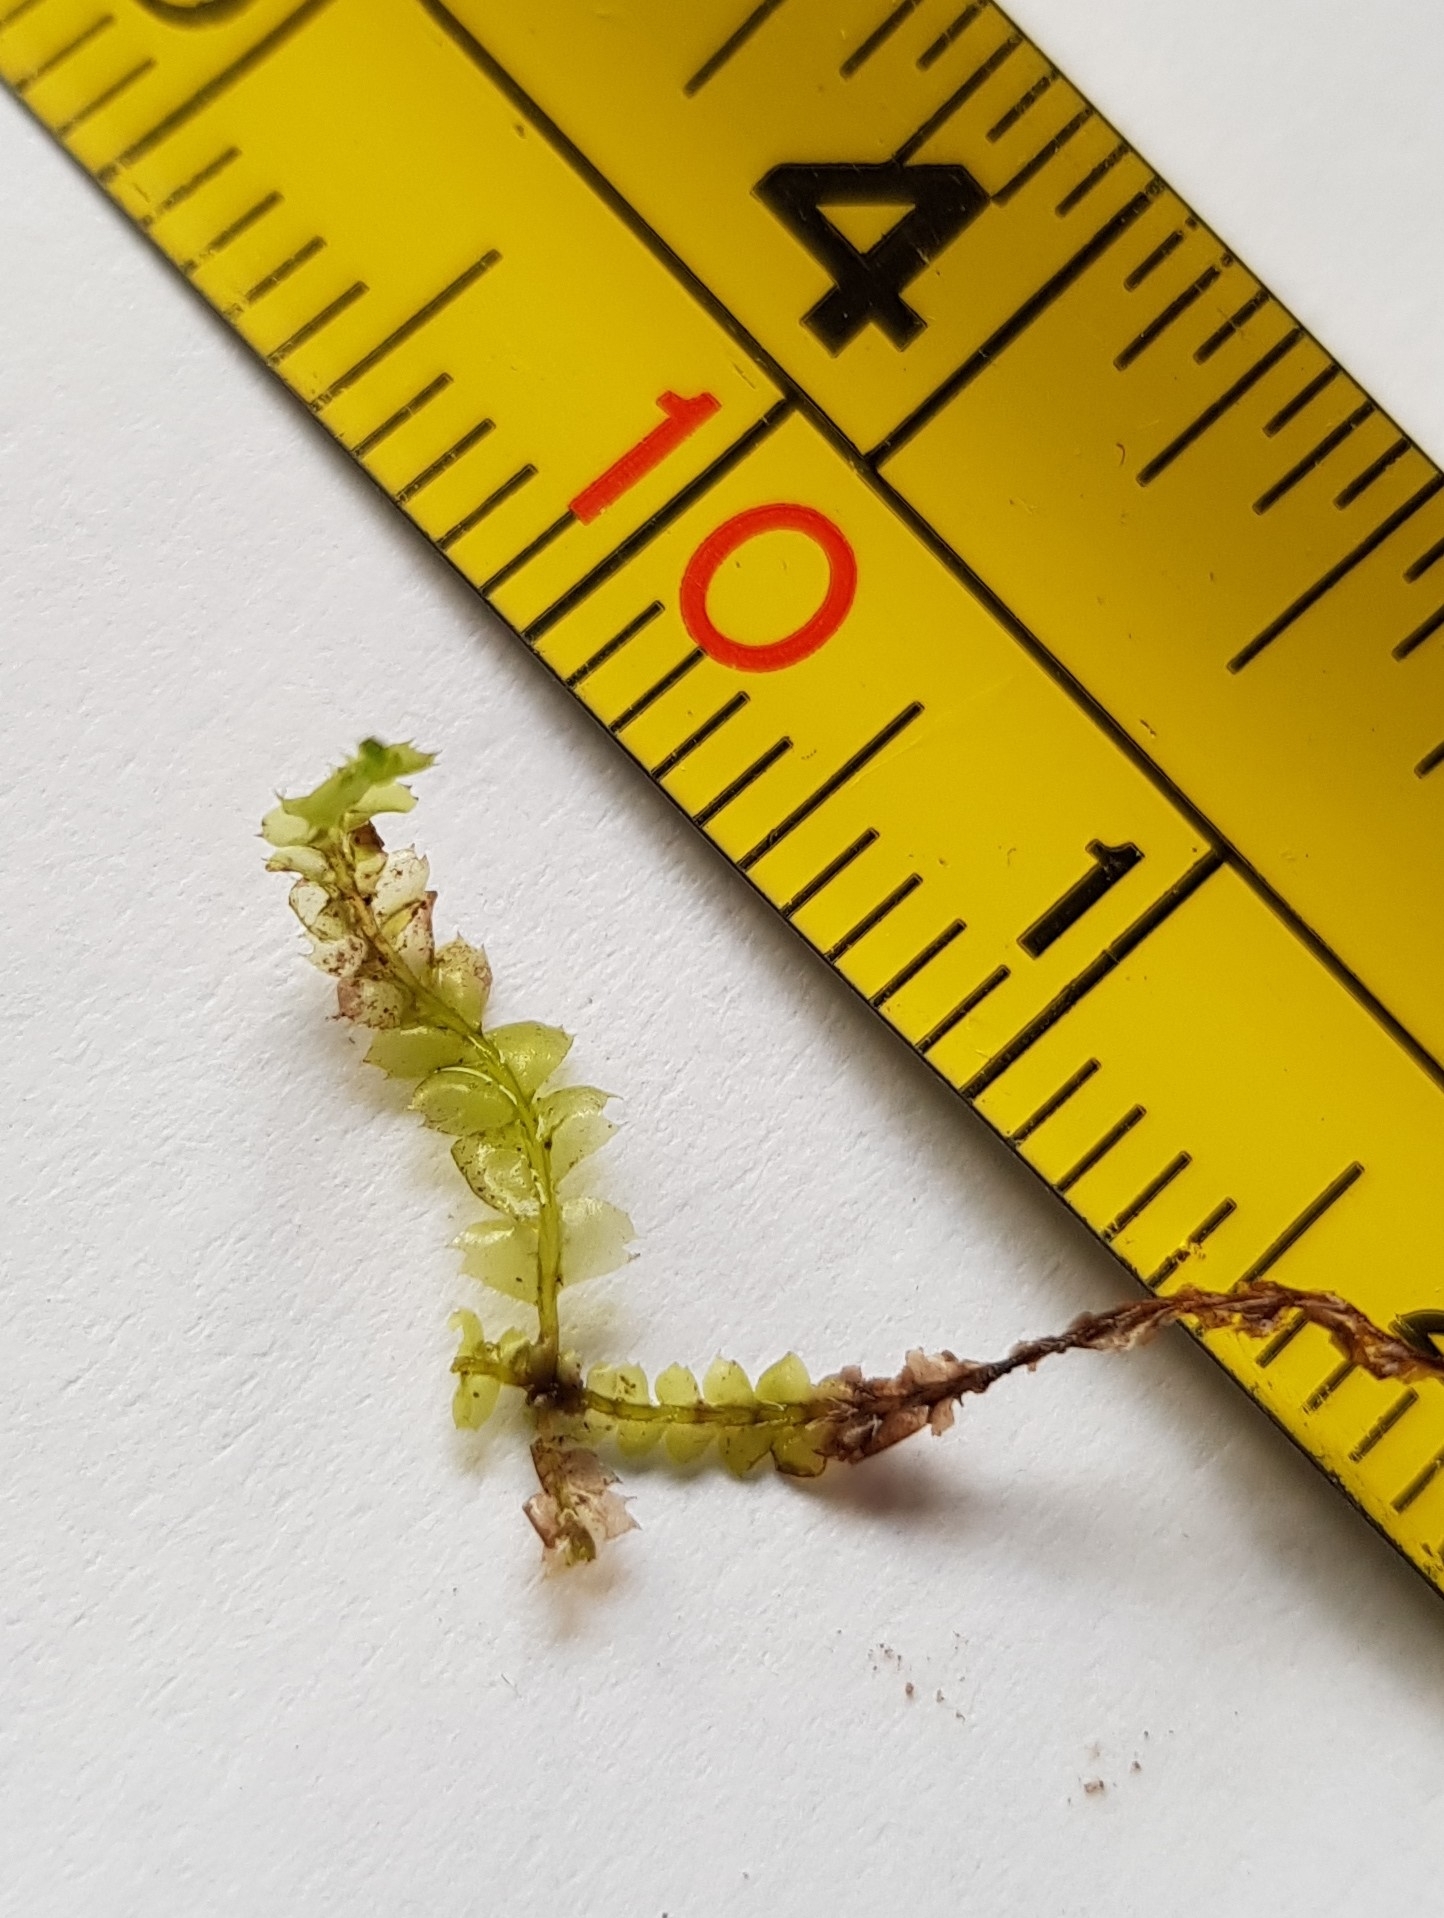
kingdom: Plantae
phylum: Marchantiophyta
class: Jungermanniopsida
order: Jungermanniales
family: Lophocoleaceae
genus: Lophocolea
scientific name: Lophocolea bidentata
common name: Bifid crestwort
